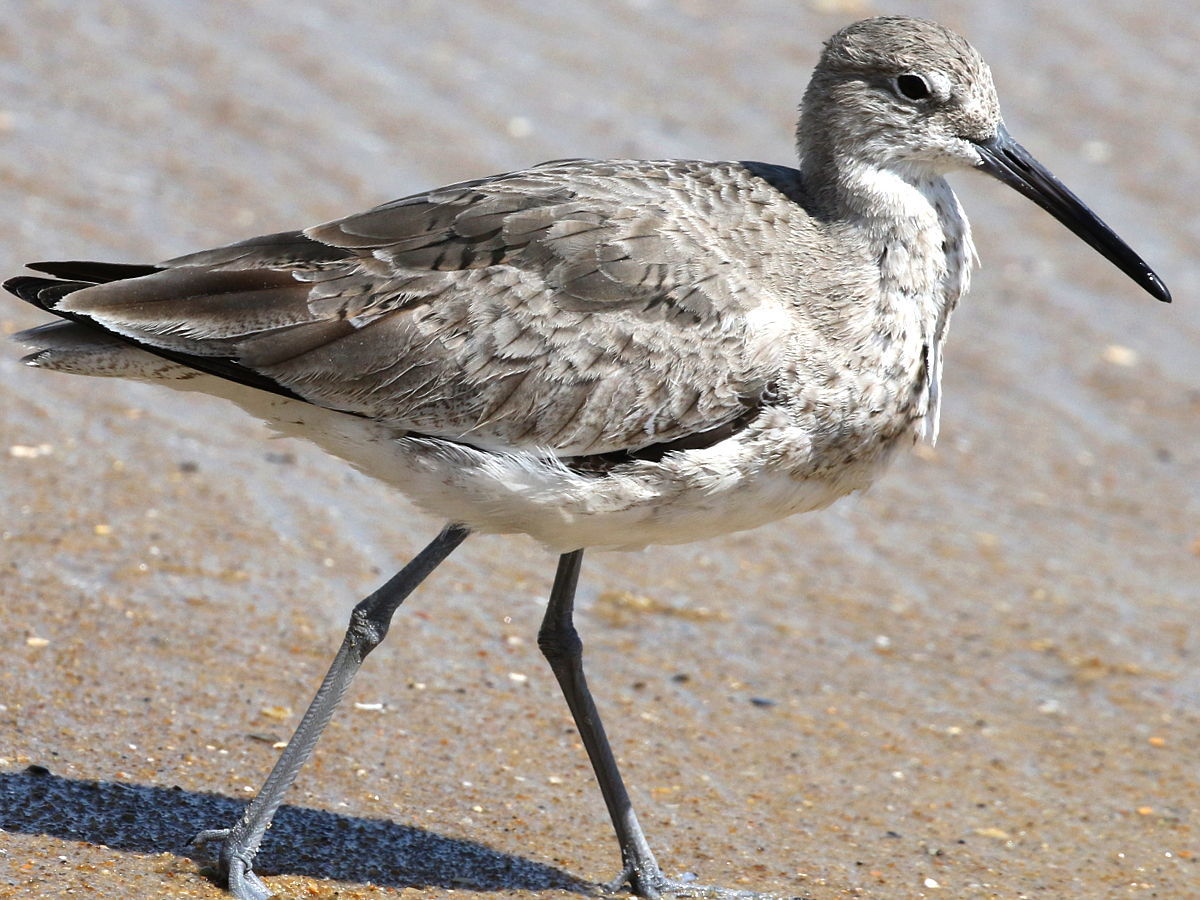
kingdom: Animalia
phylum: Chordata
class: Aves
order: Charadriiformes
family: Scolopacidae
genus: Tringa
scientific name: Tringa semipalmata
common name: Willet
